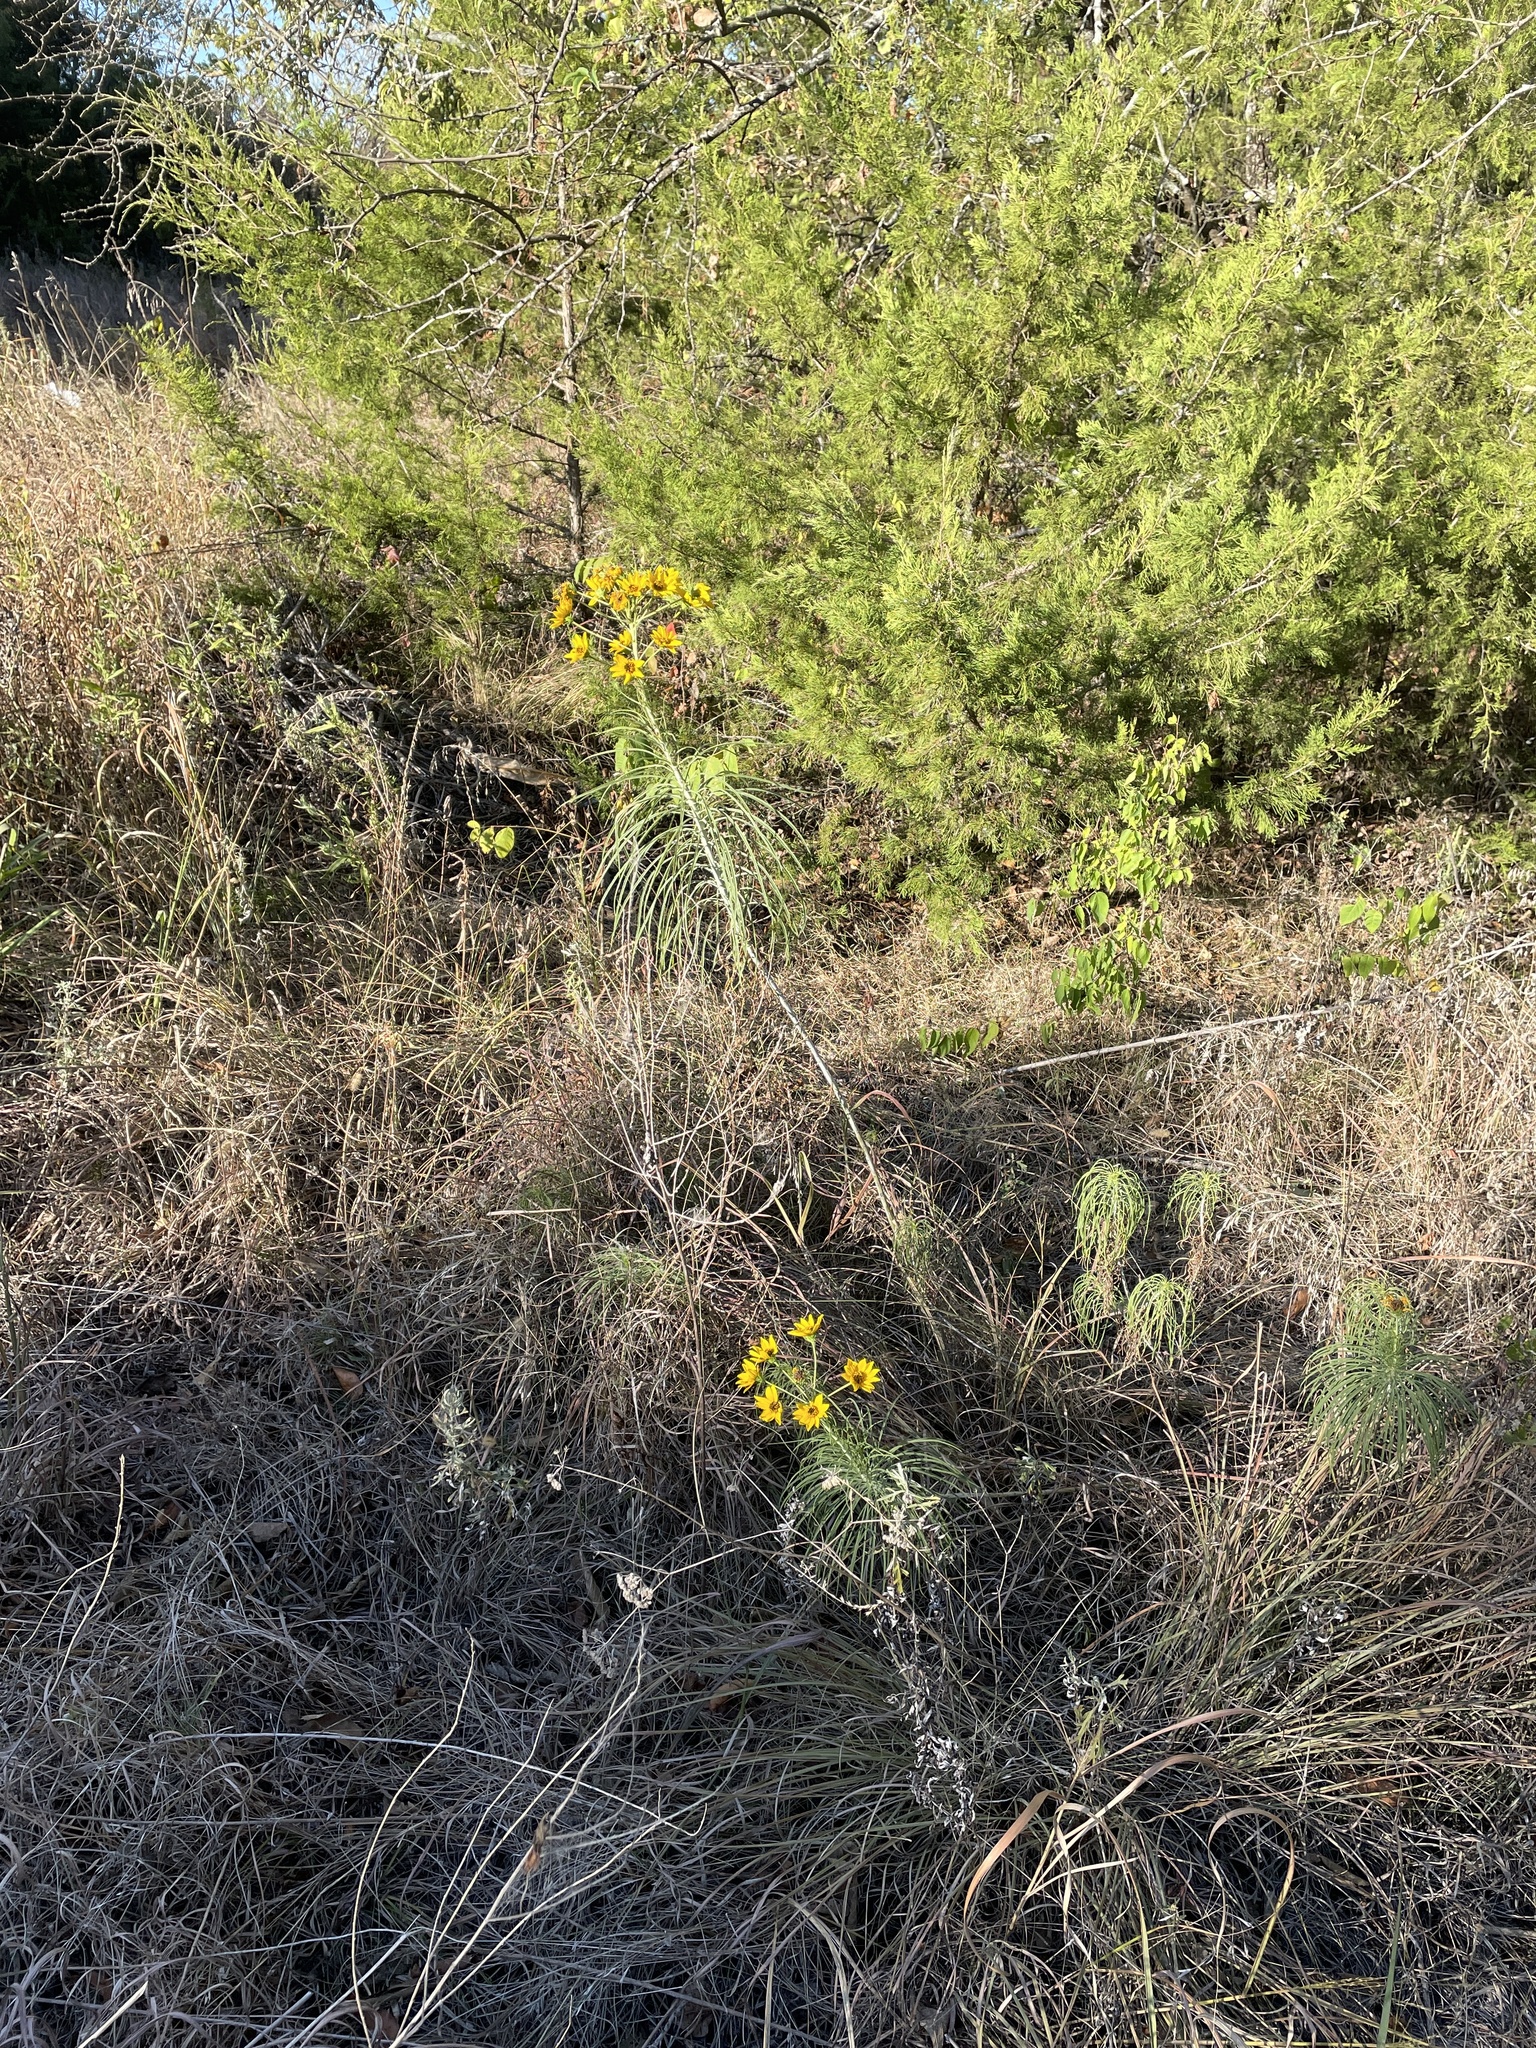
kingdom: Plantae
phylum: Tracheophyta
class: Magnoliopsida
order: Asterales
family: Asteraceae
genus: Helianthus
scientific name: Helianthus salicifolius
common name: Willowleaf sunflower
